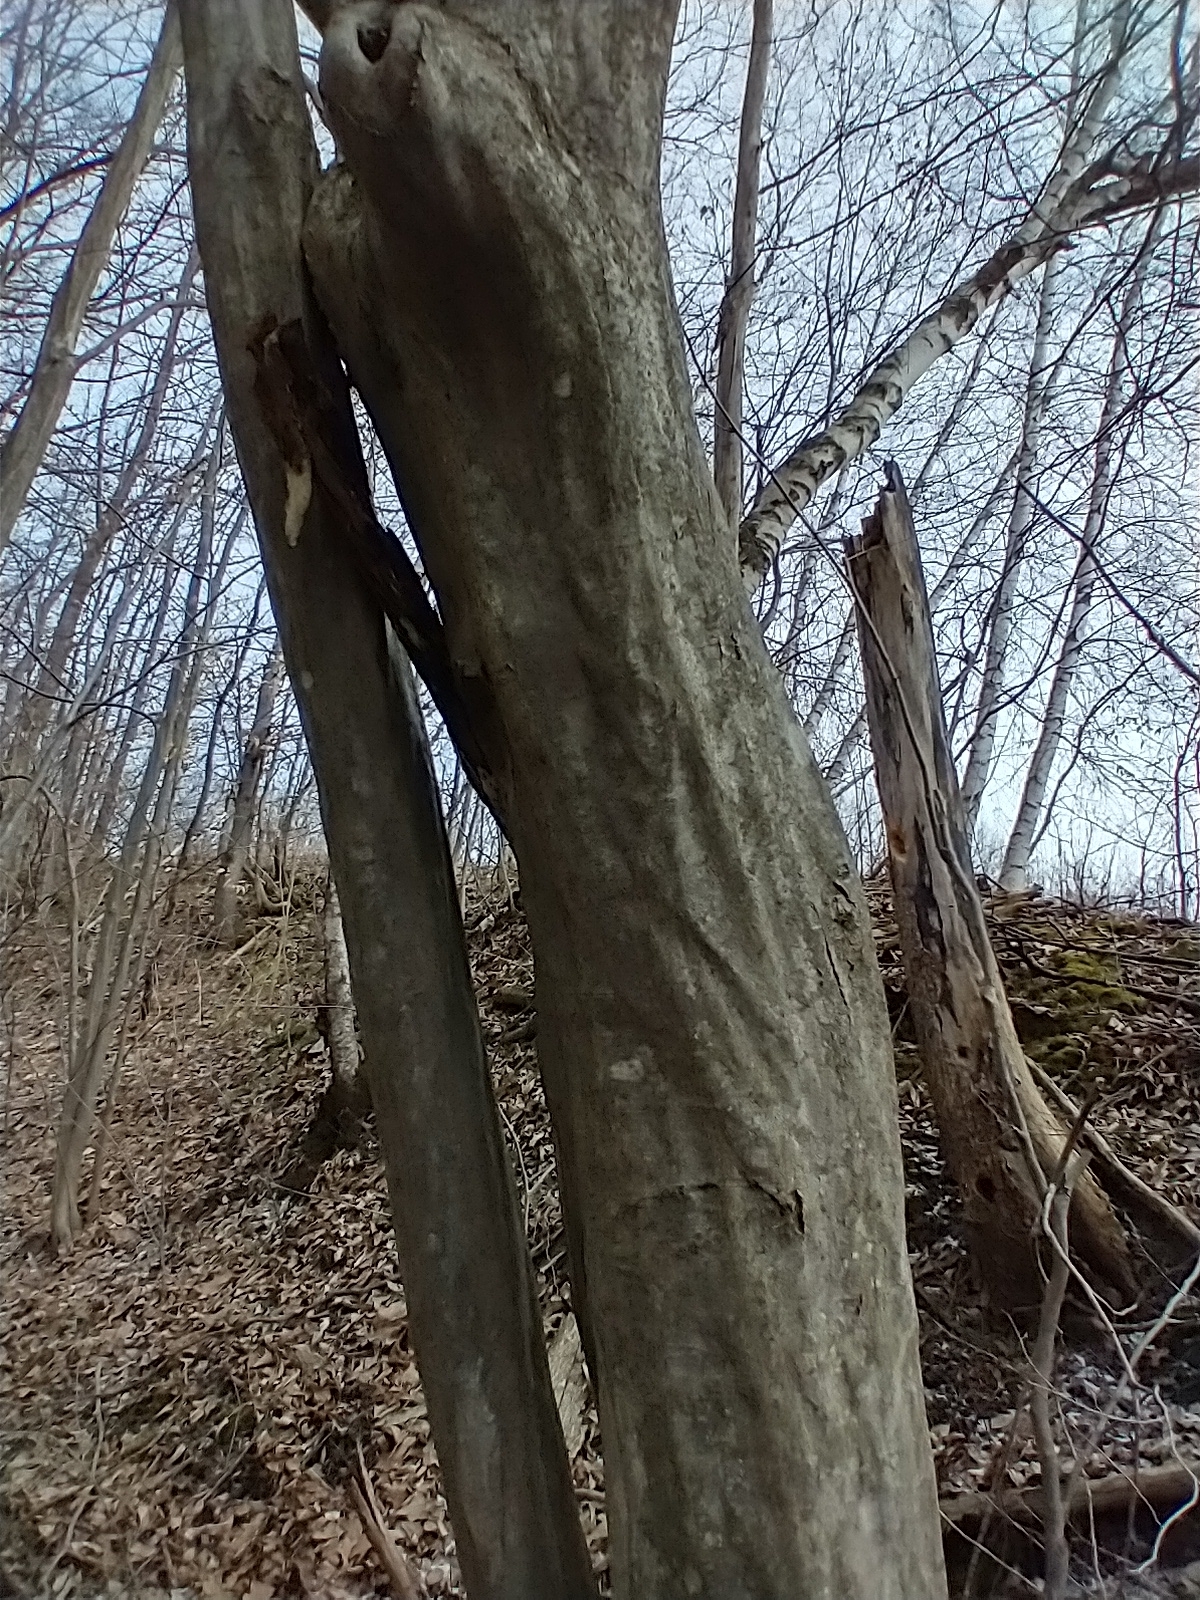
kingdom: Plantae
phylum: Tracheophyta
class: Magnoliopsida
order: Fagales
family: Betulaceae
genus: Carpinus
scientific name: Carpinus caroliniana
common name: American hornbeam
